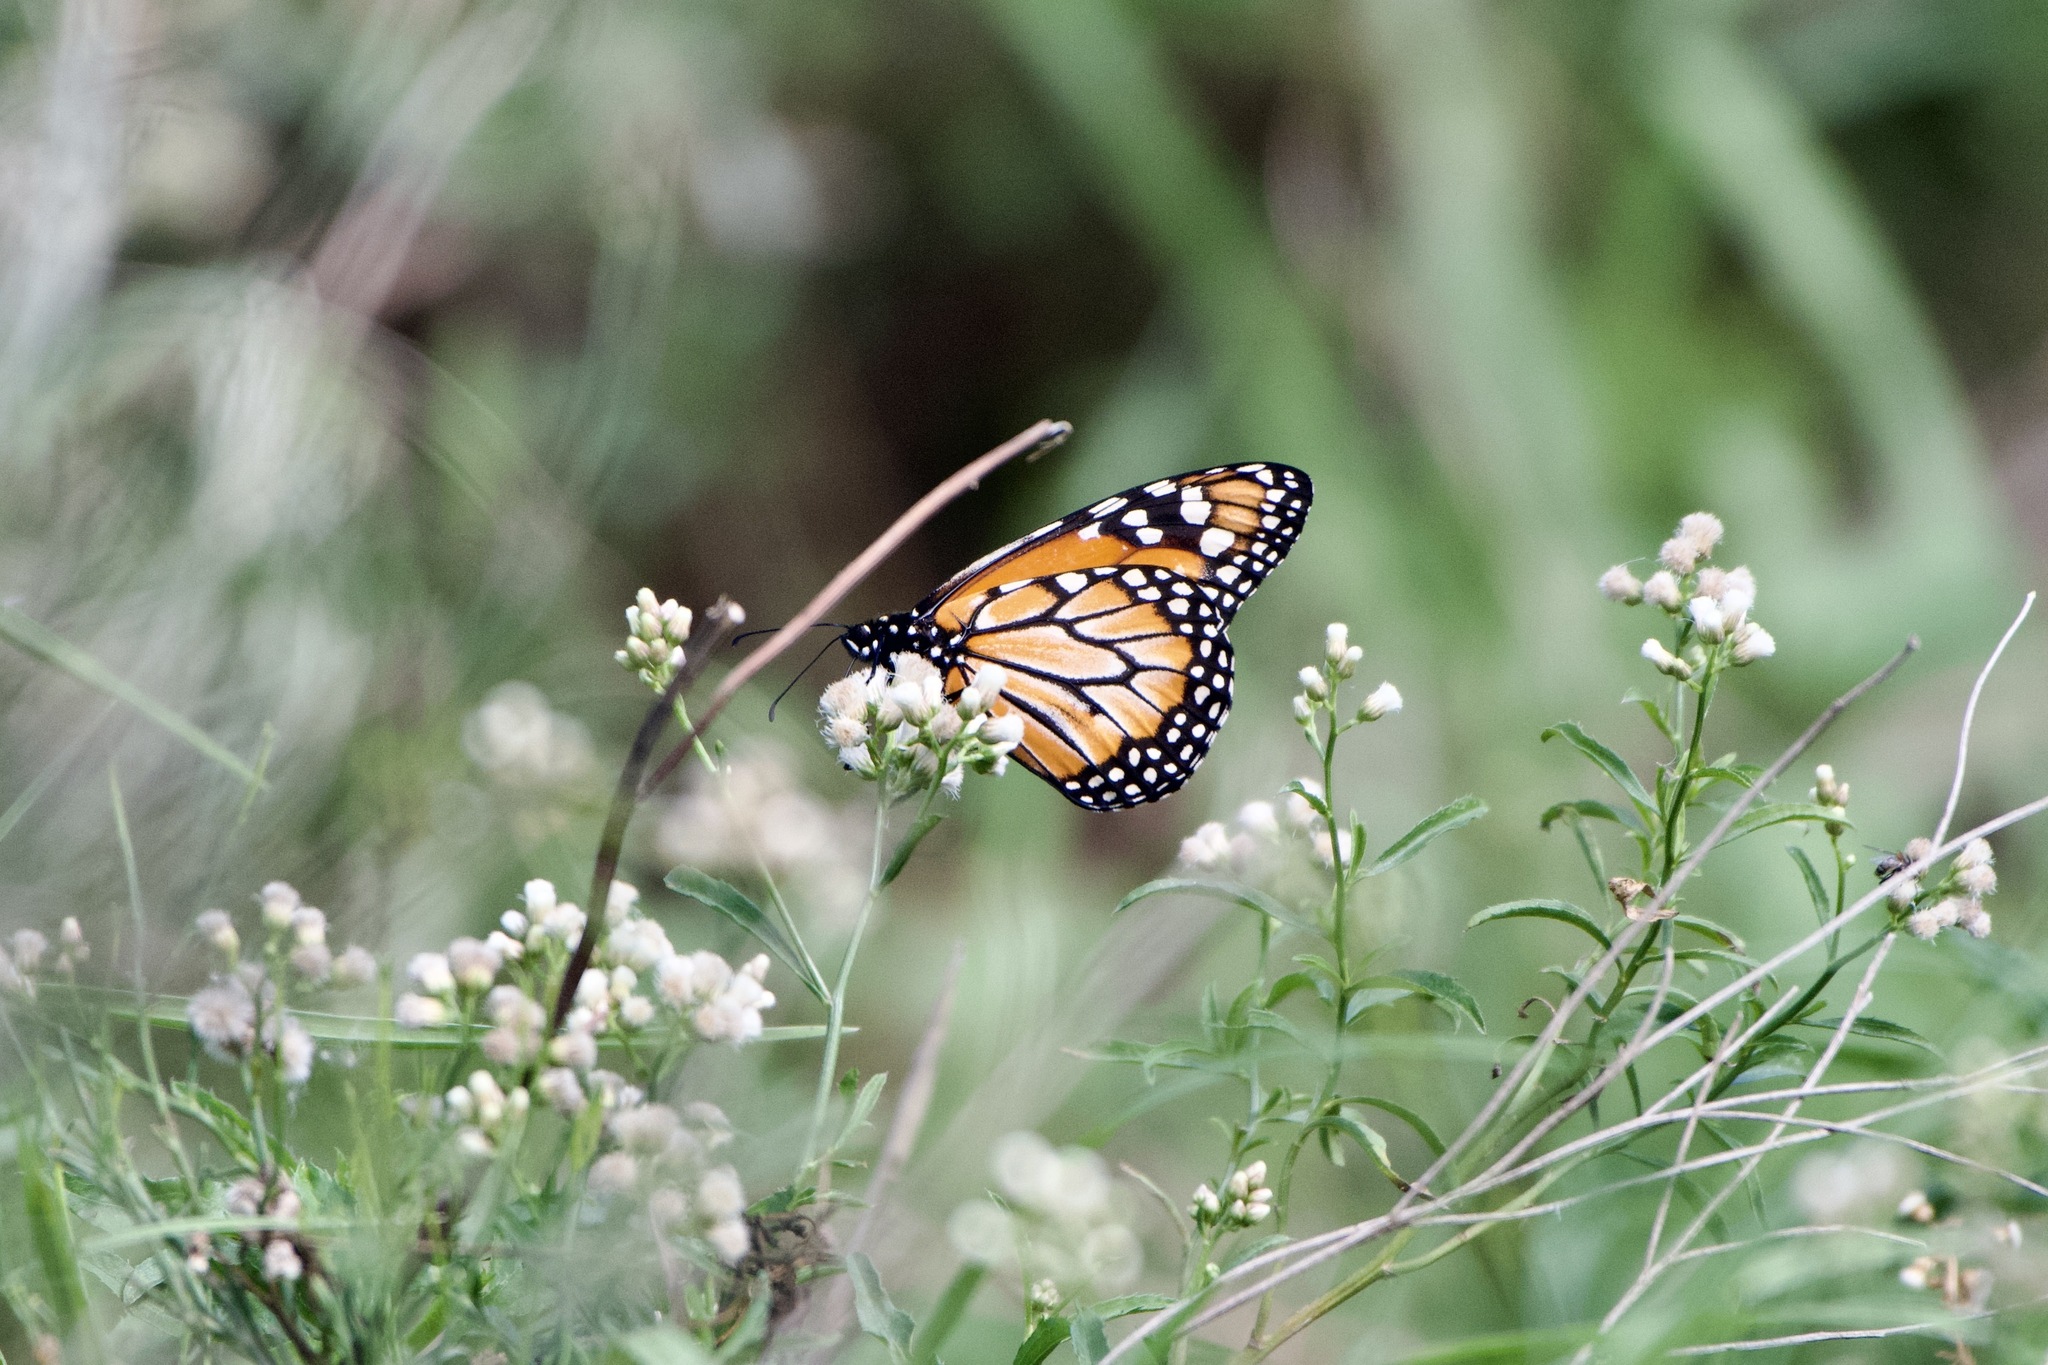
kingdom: Animalia
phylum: Arthropoda
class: Insecta
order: Lepidoptera
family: Nymphalidae
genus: Danaus
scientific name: Danaus erippus
